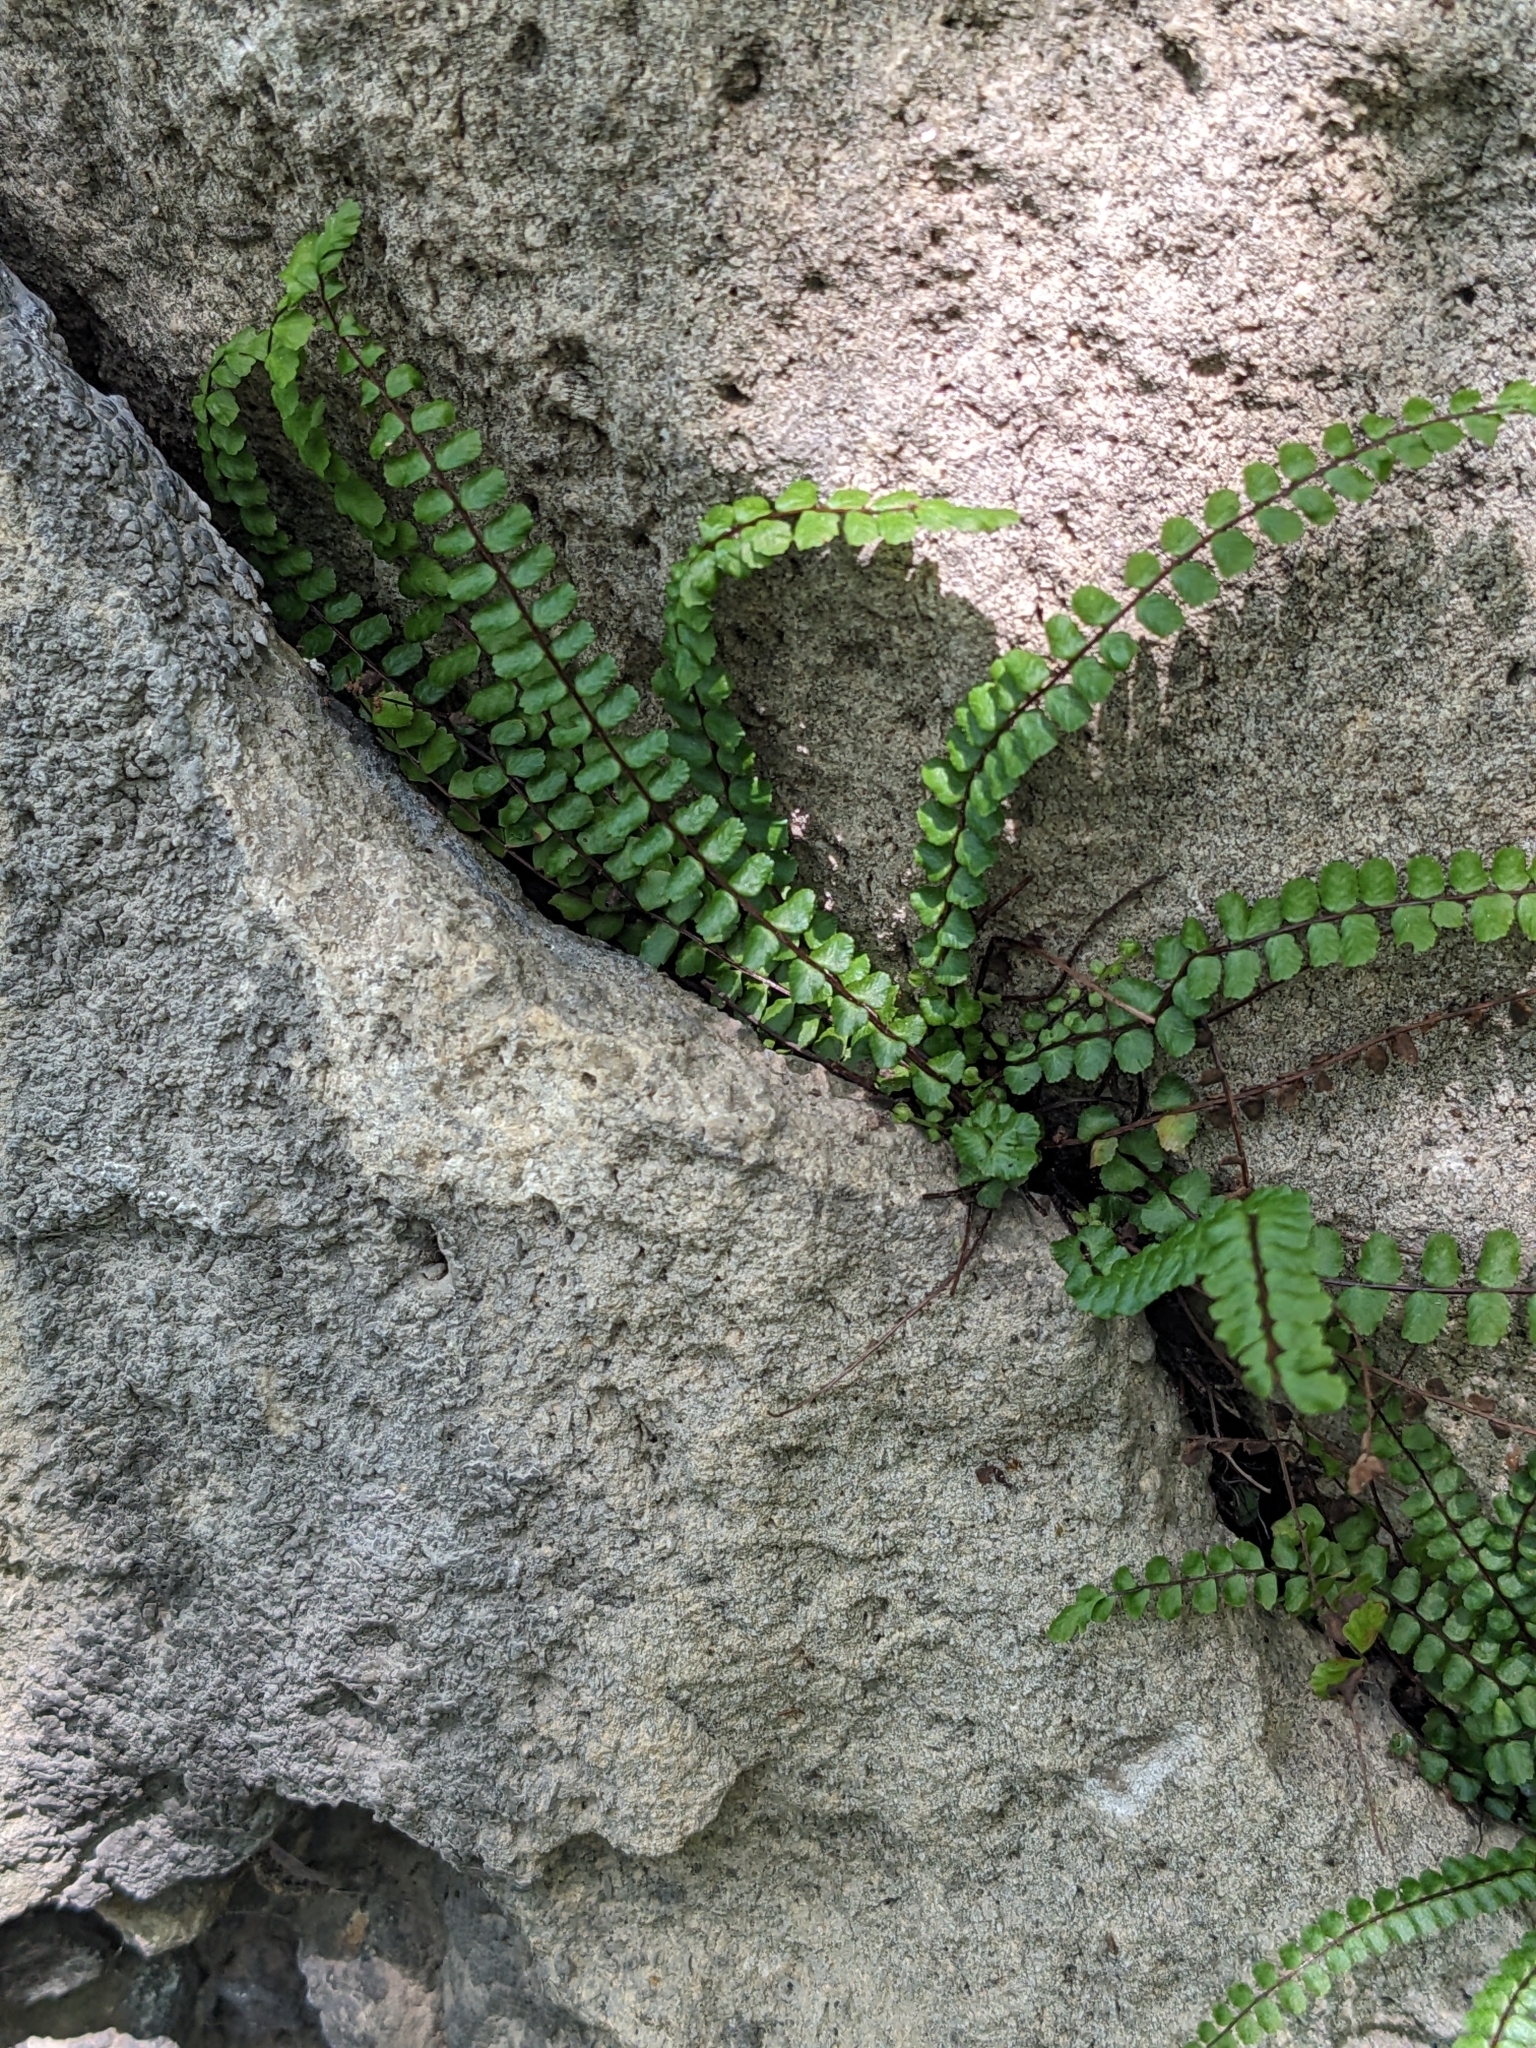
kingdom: Plantae
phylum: Tracheophyta
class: Polypodiopsida
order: Polypodiales
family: Aspleniaceae
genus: Asplenium
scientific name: Asplenium trichomanes
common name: Maidenhair spleenwort
